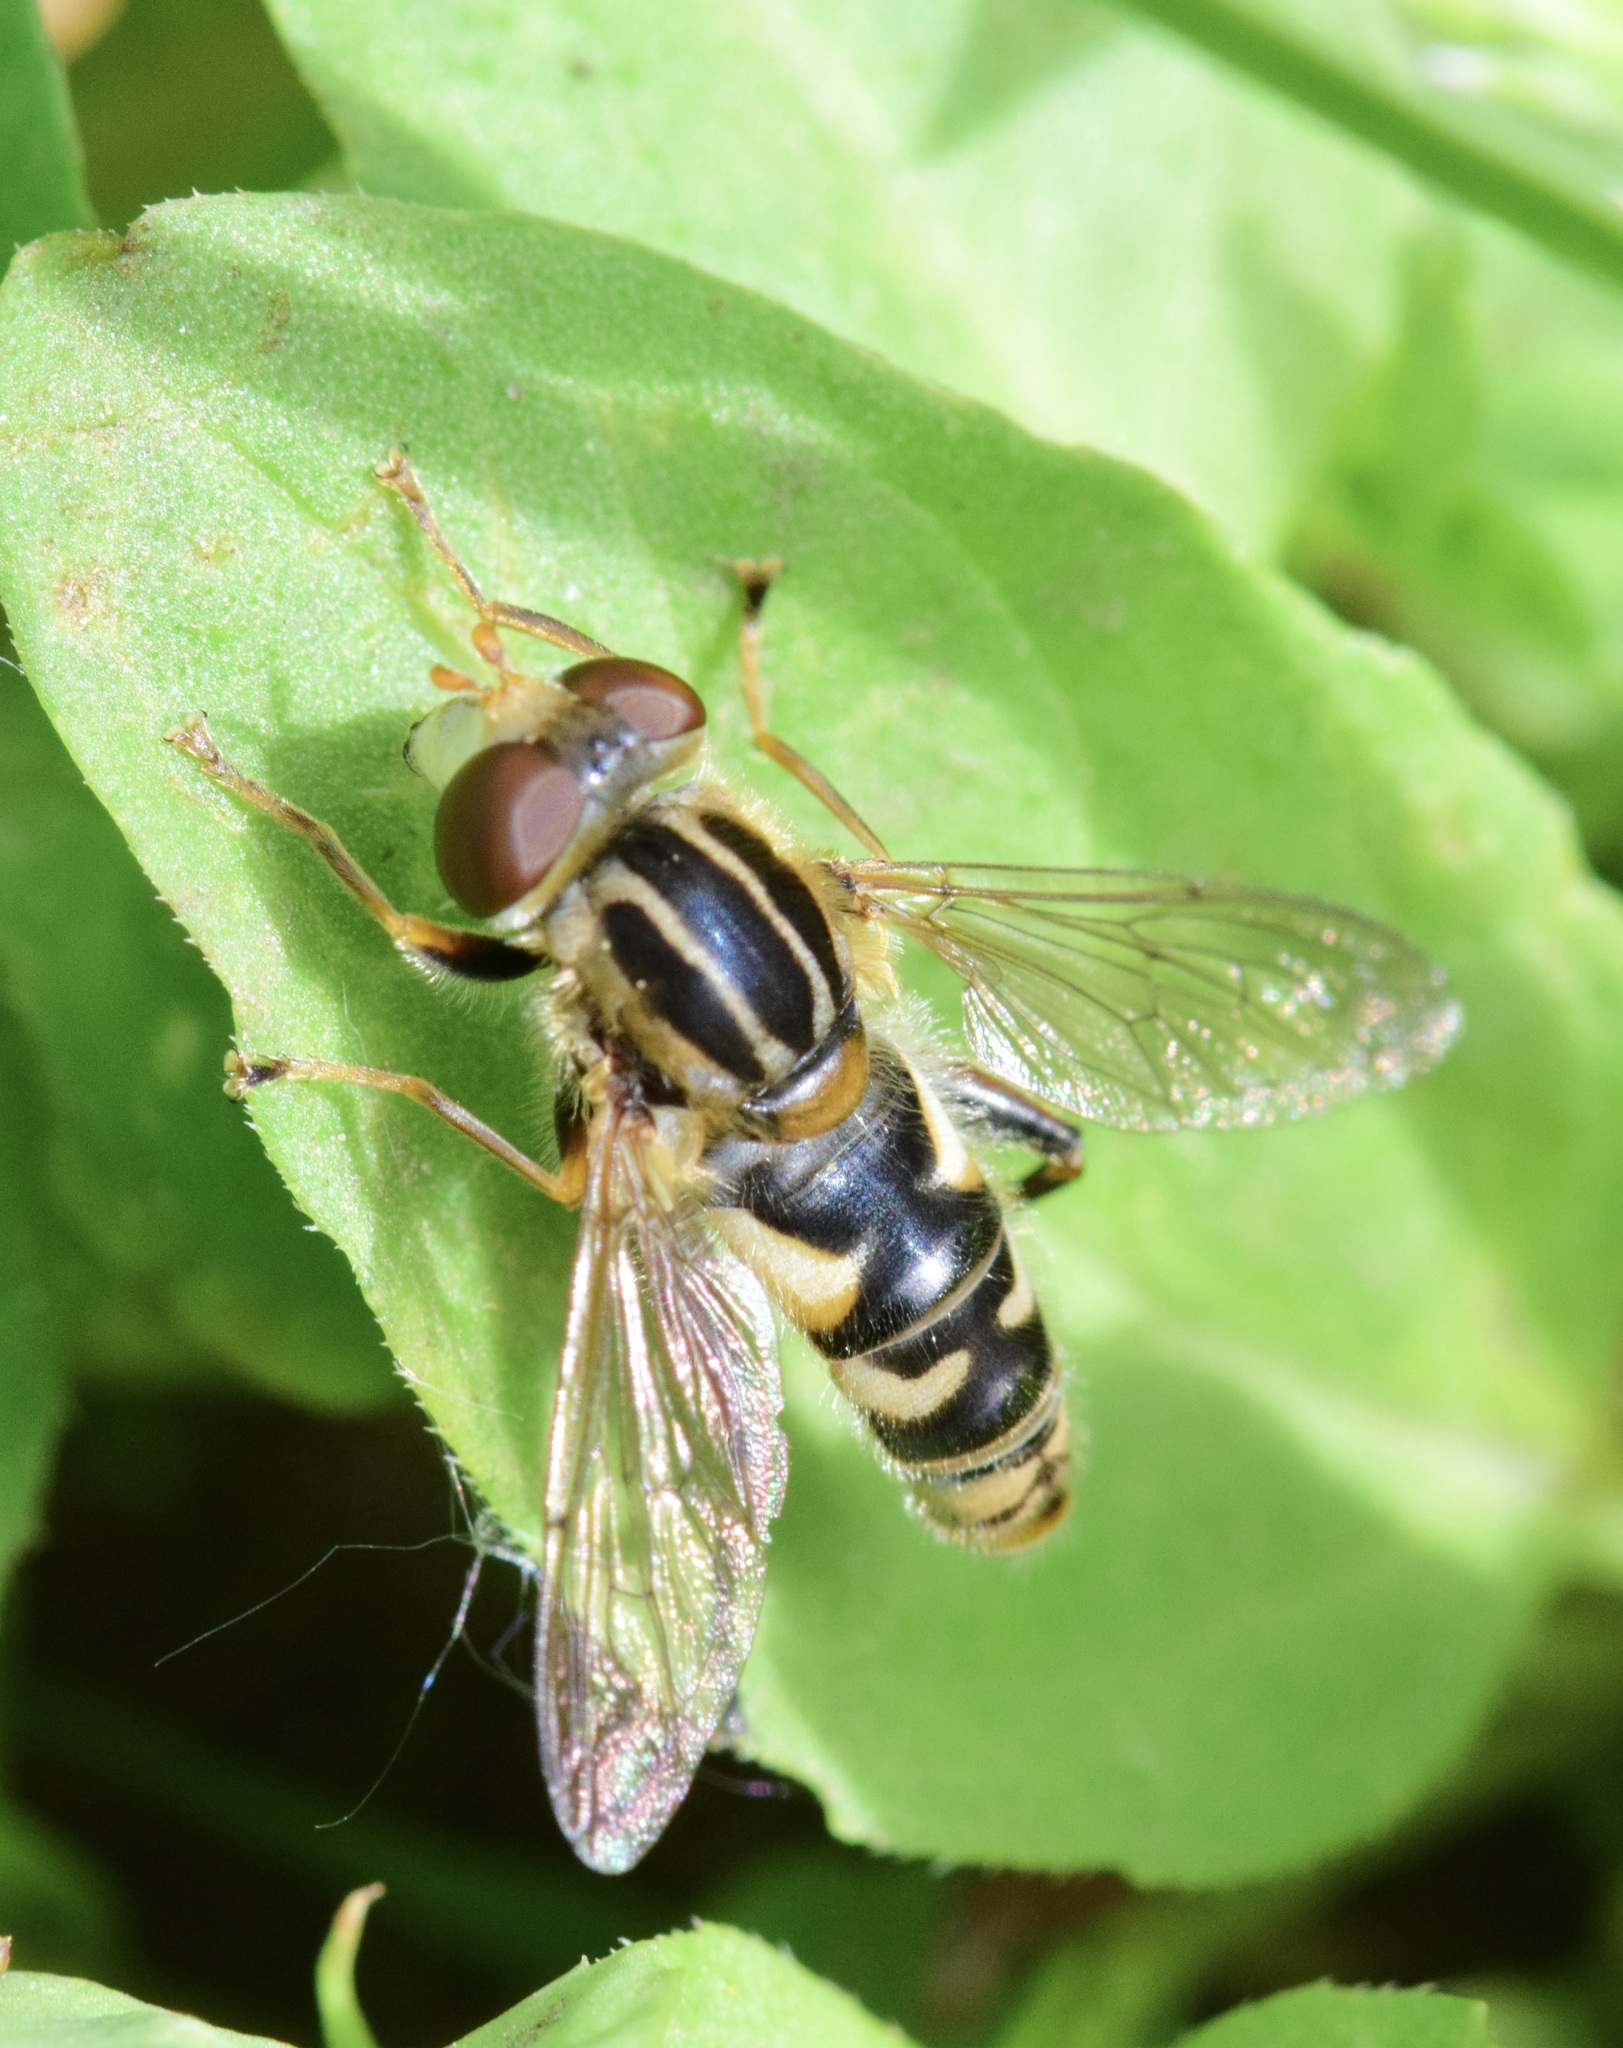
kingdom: Animalia
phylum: Arthropoda
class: Insecta
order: Diptera
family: Syrphidae
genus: Anasimyia
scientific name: Anasimyia
